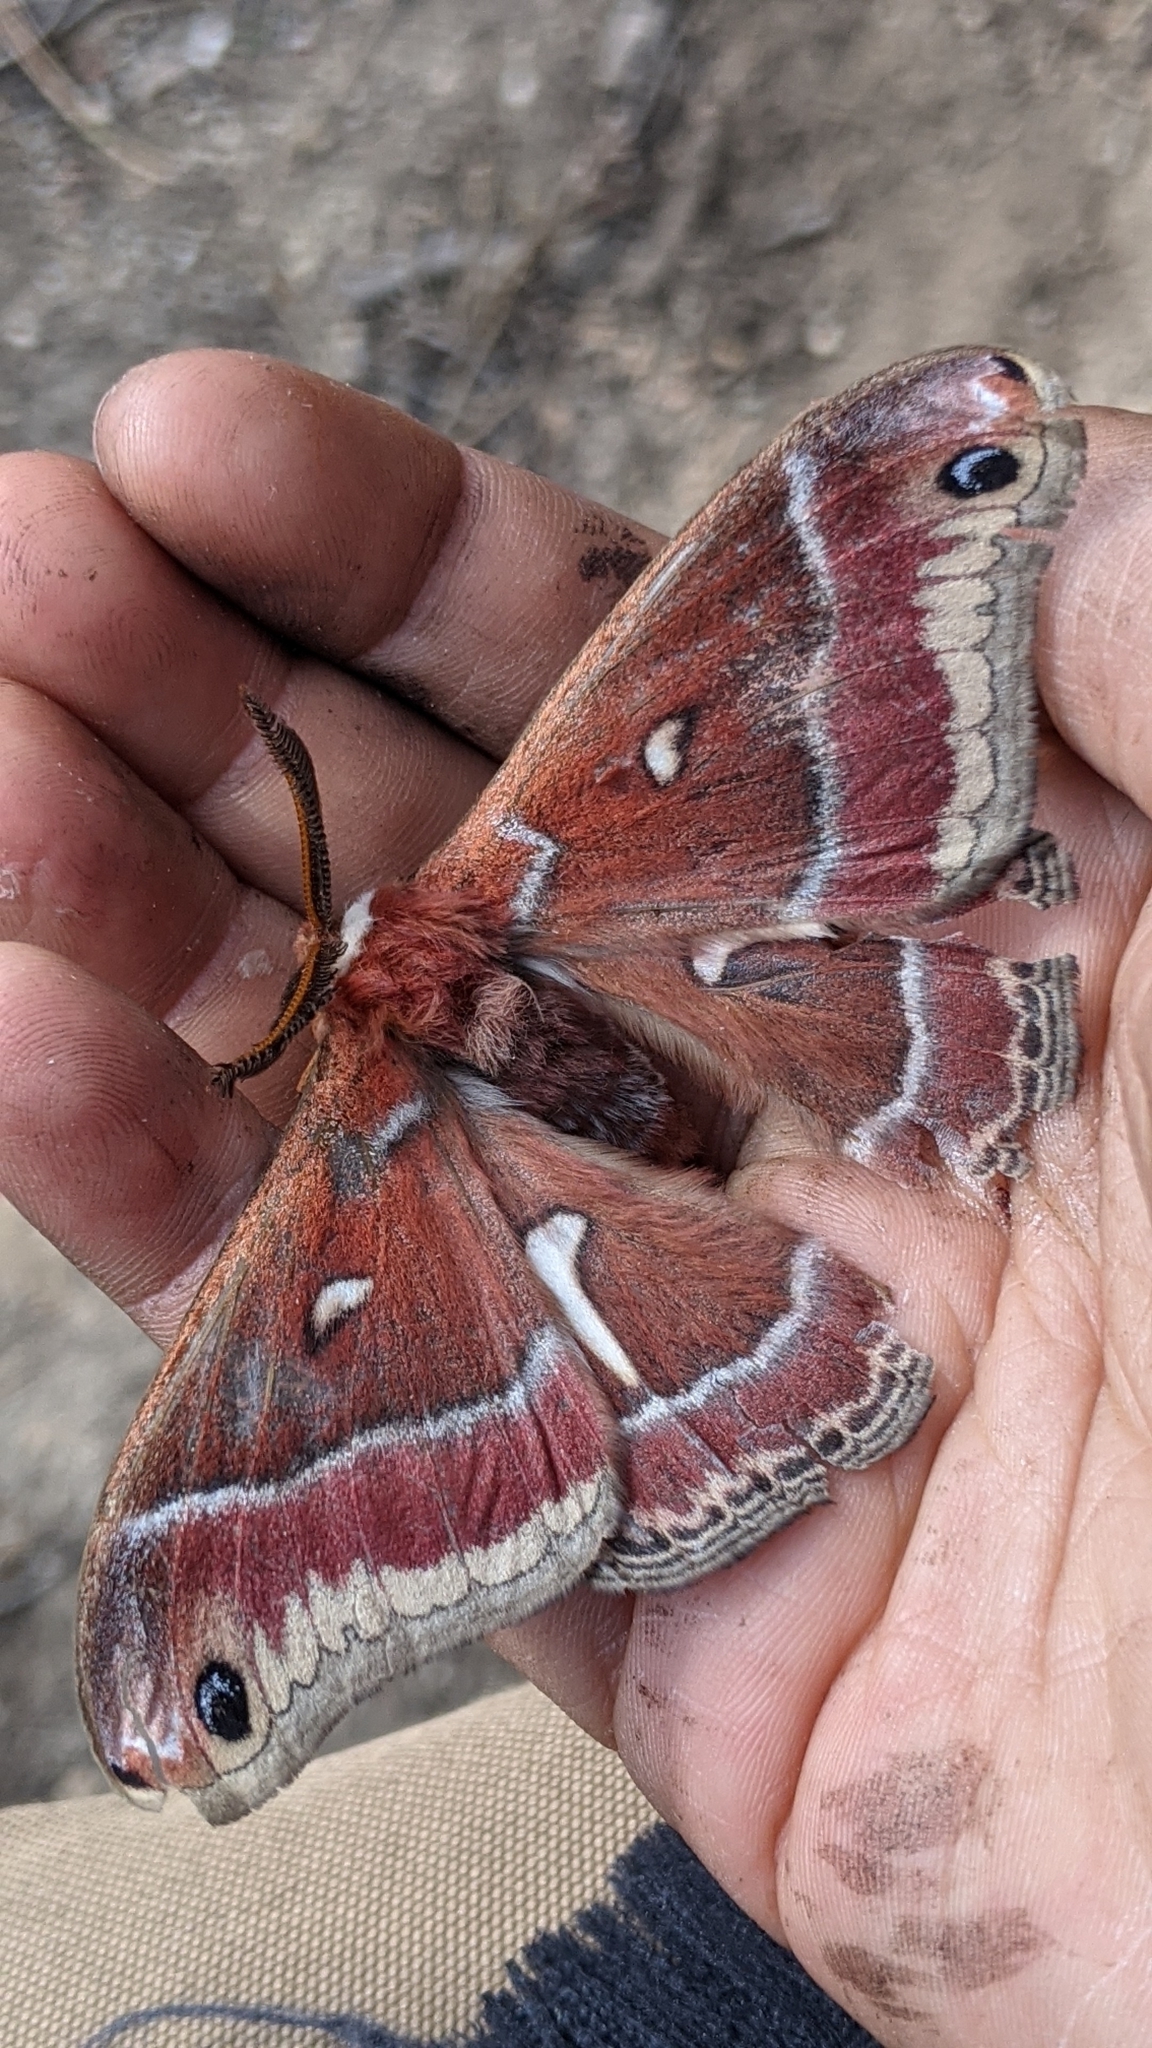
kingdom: Animalia
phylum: Arthropoda
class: Insecta
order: Lepidoptera
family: Saturniidae
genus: Hyalophora
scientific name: Hyalophora euryalus
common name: Ceanothus silkmoth
